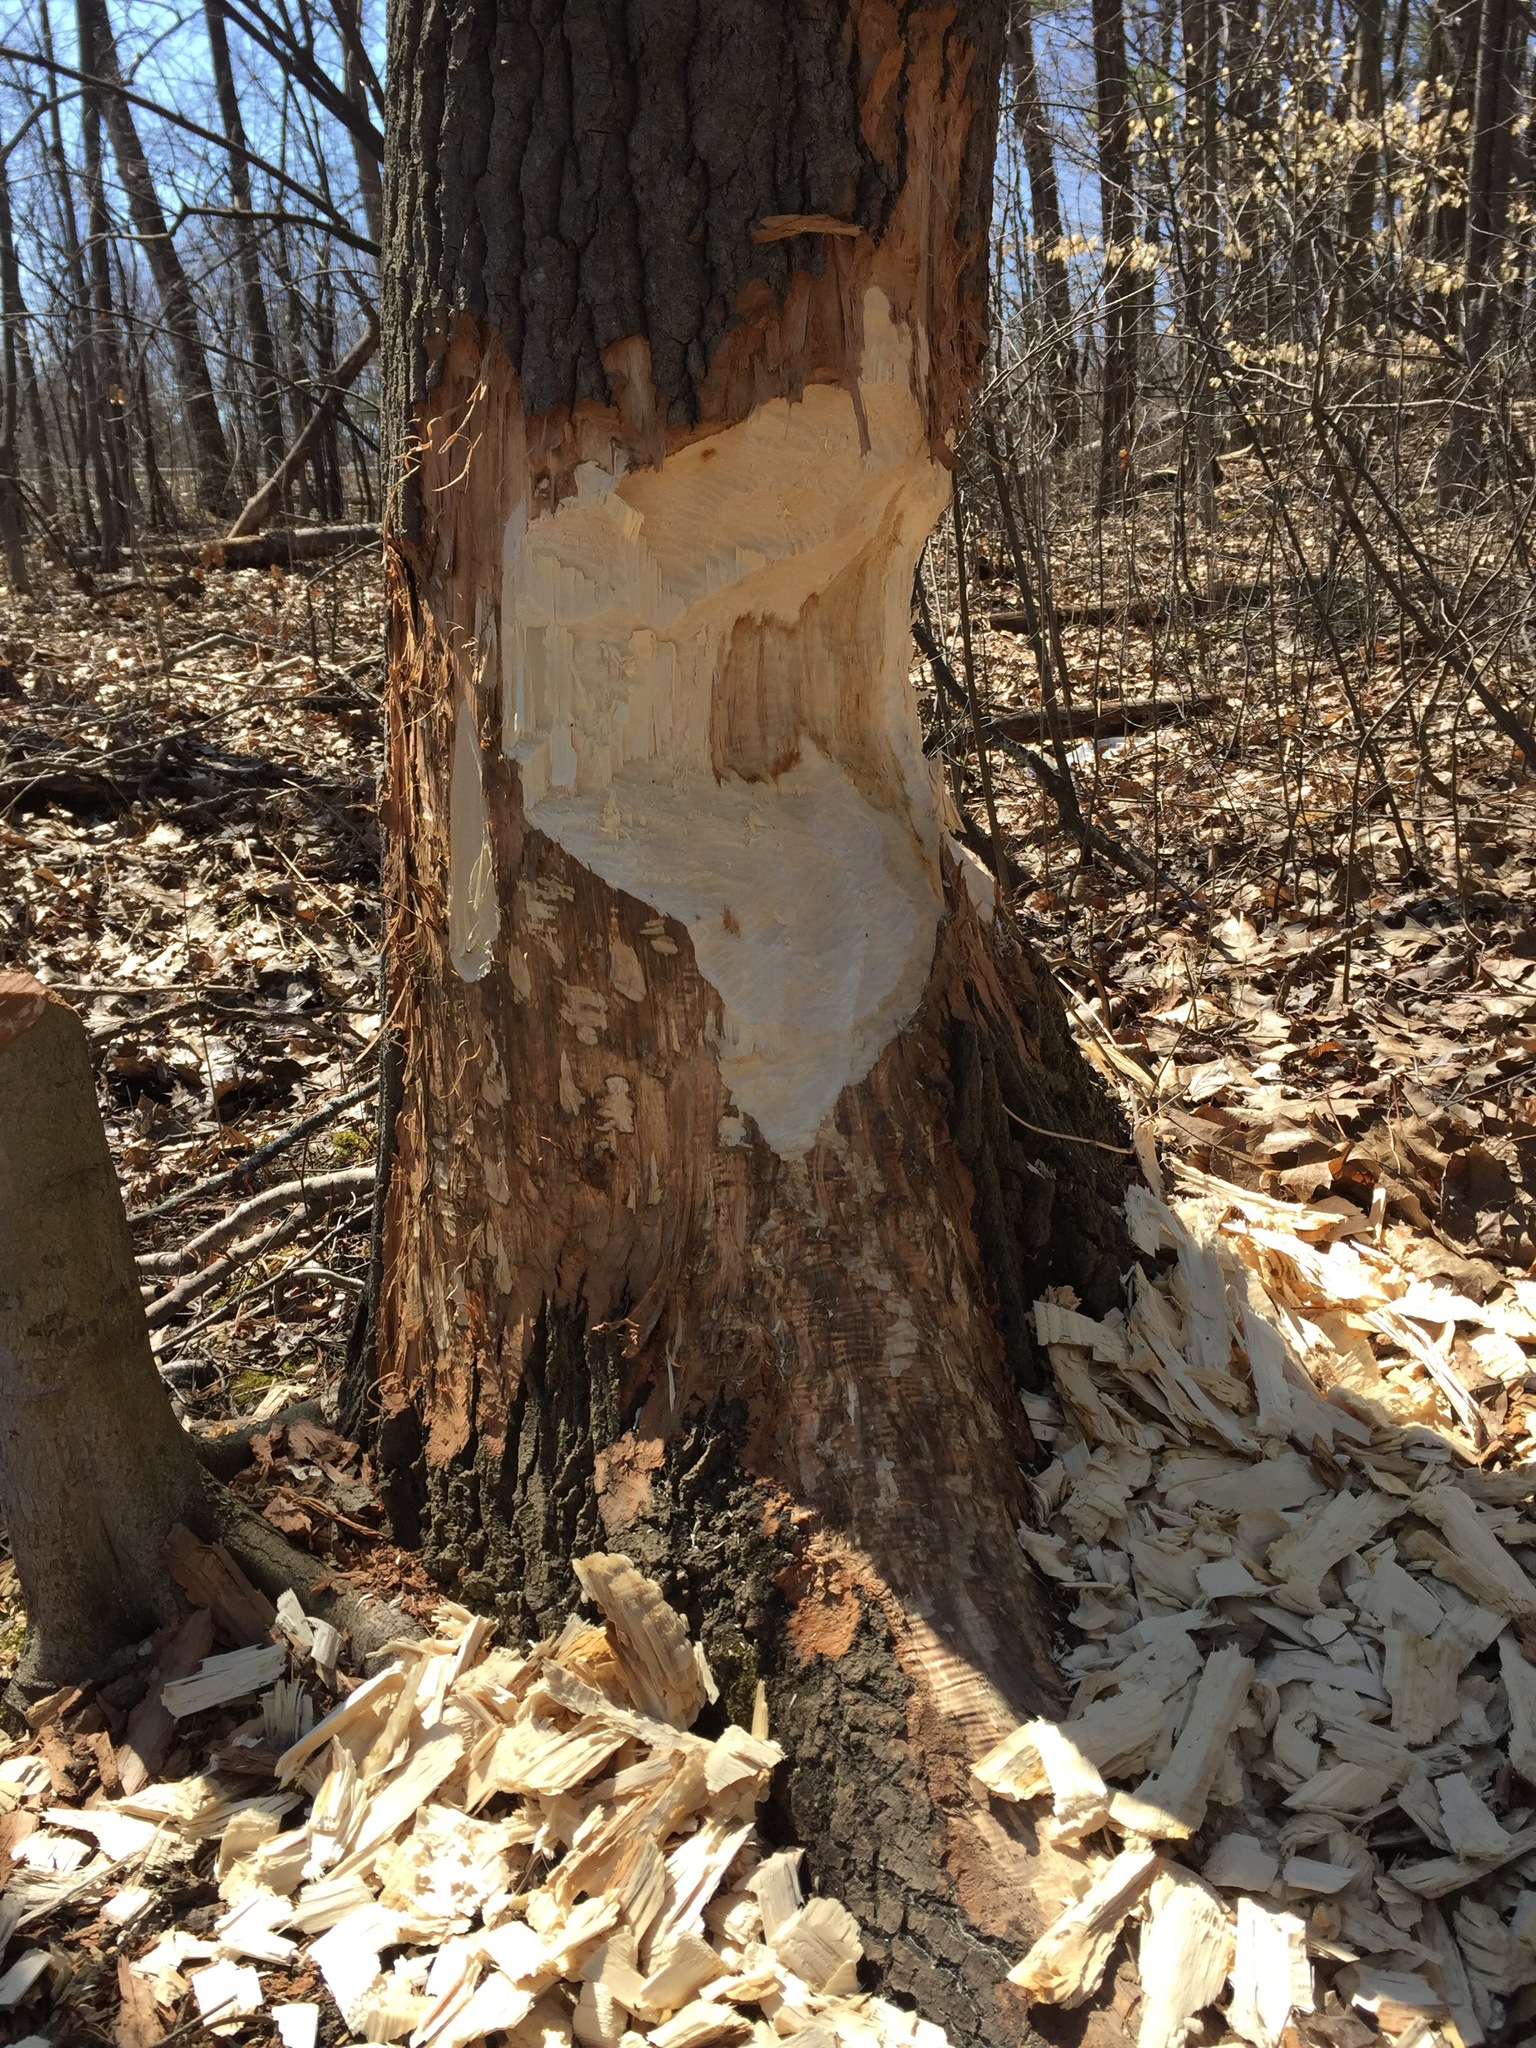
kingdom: Animalia
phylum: Chordata
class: Mammalia
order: Rodentia
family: Castoridae
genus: Castor
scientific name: Castor canadensis
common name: American beaver
